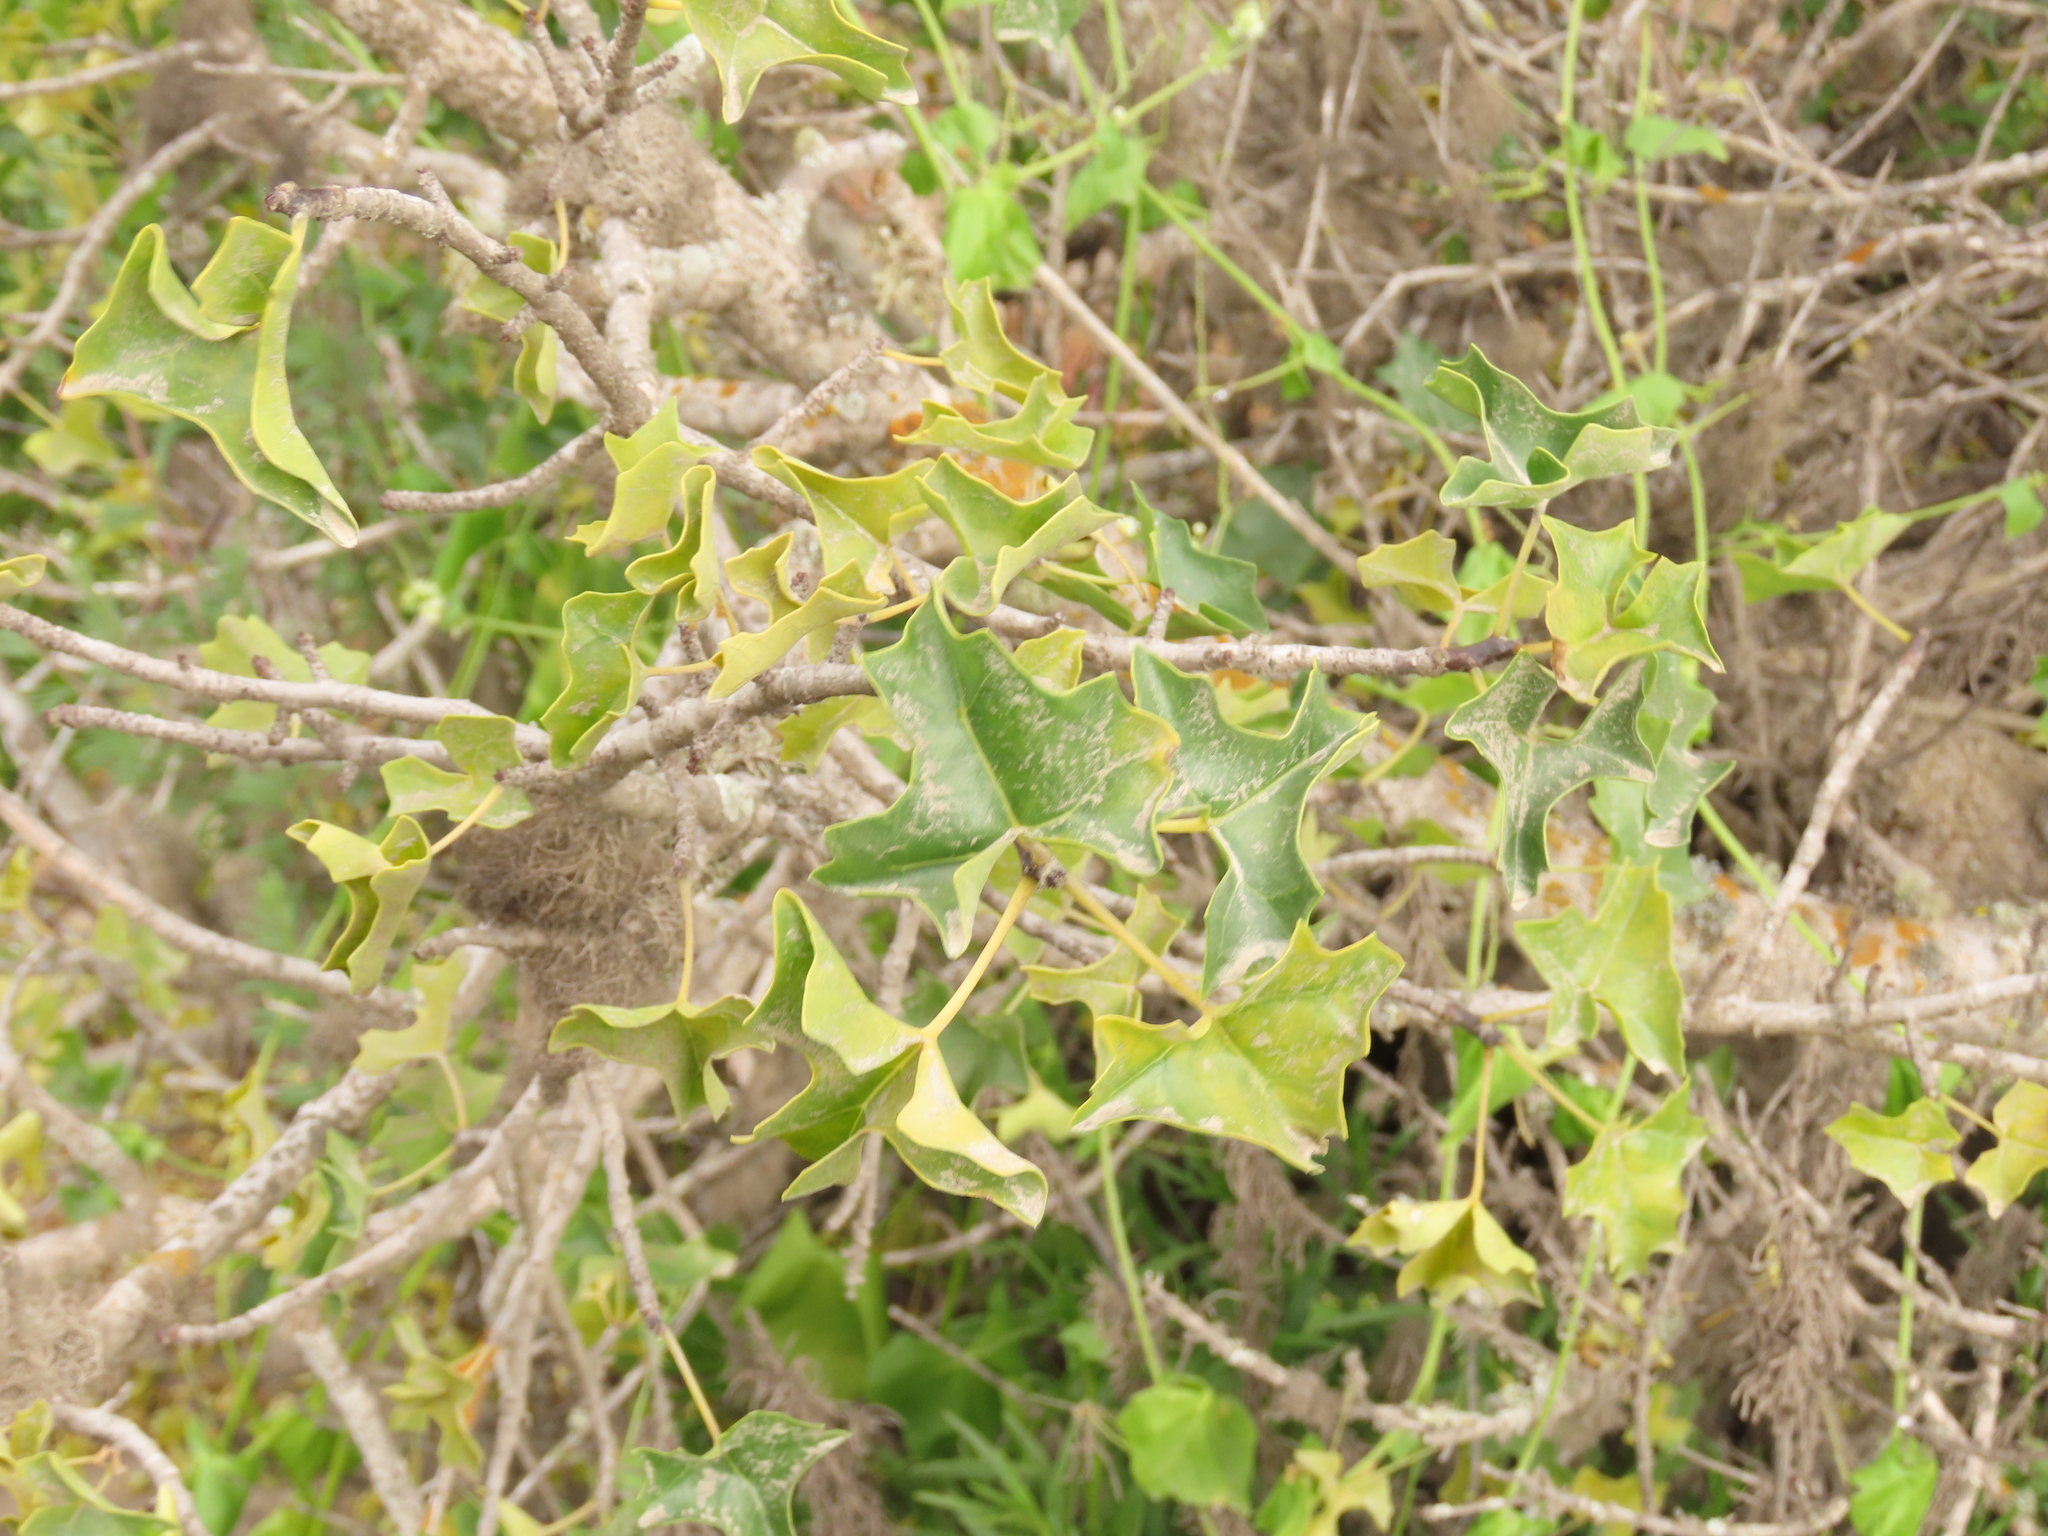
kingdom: Plantae
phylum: Tracheophyta
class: Magnoliopsida
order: Brassicales
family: Caricaceae
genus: Vasconcellea
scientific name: Vasconcellea chilensis
